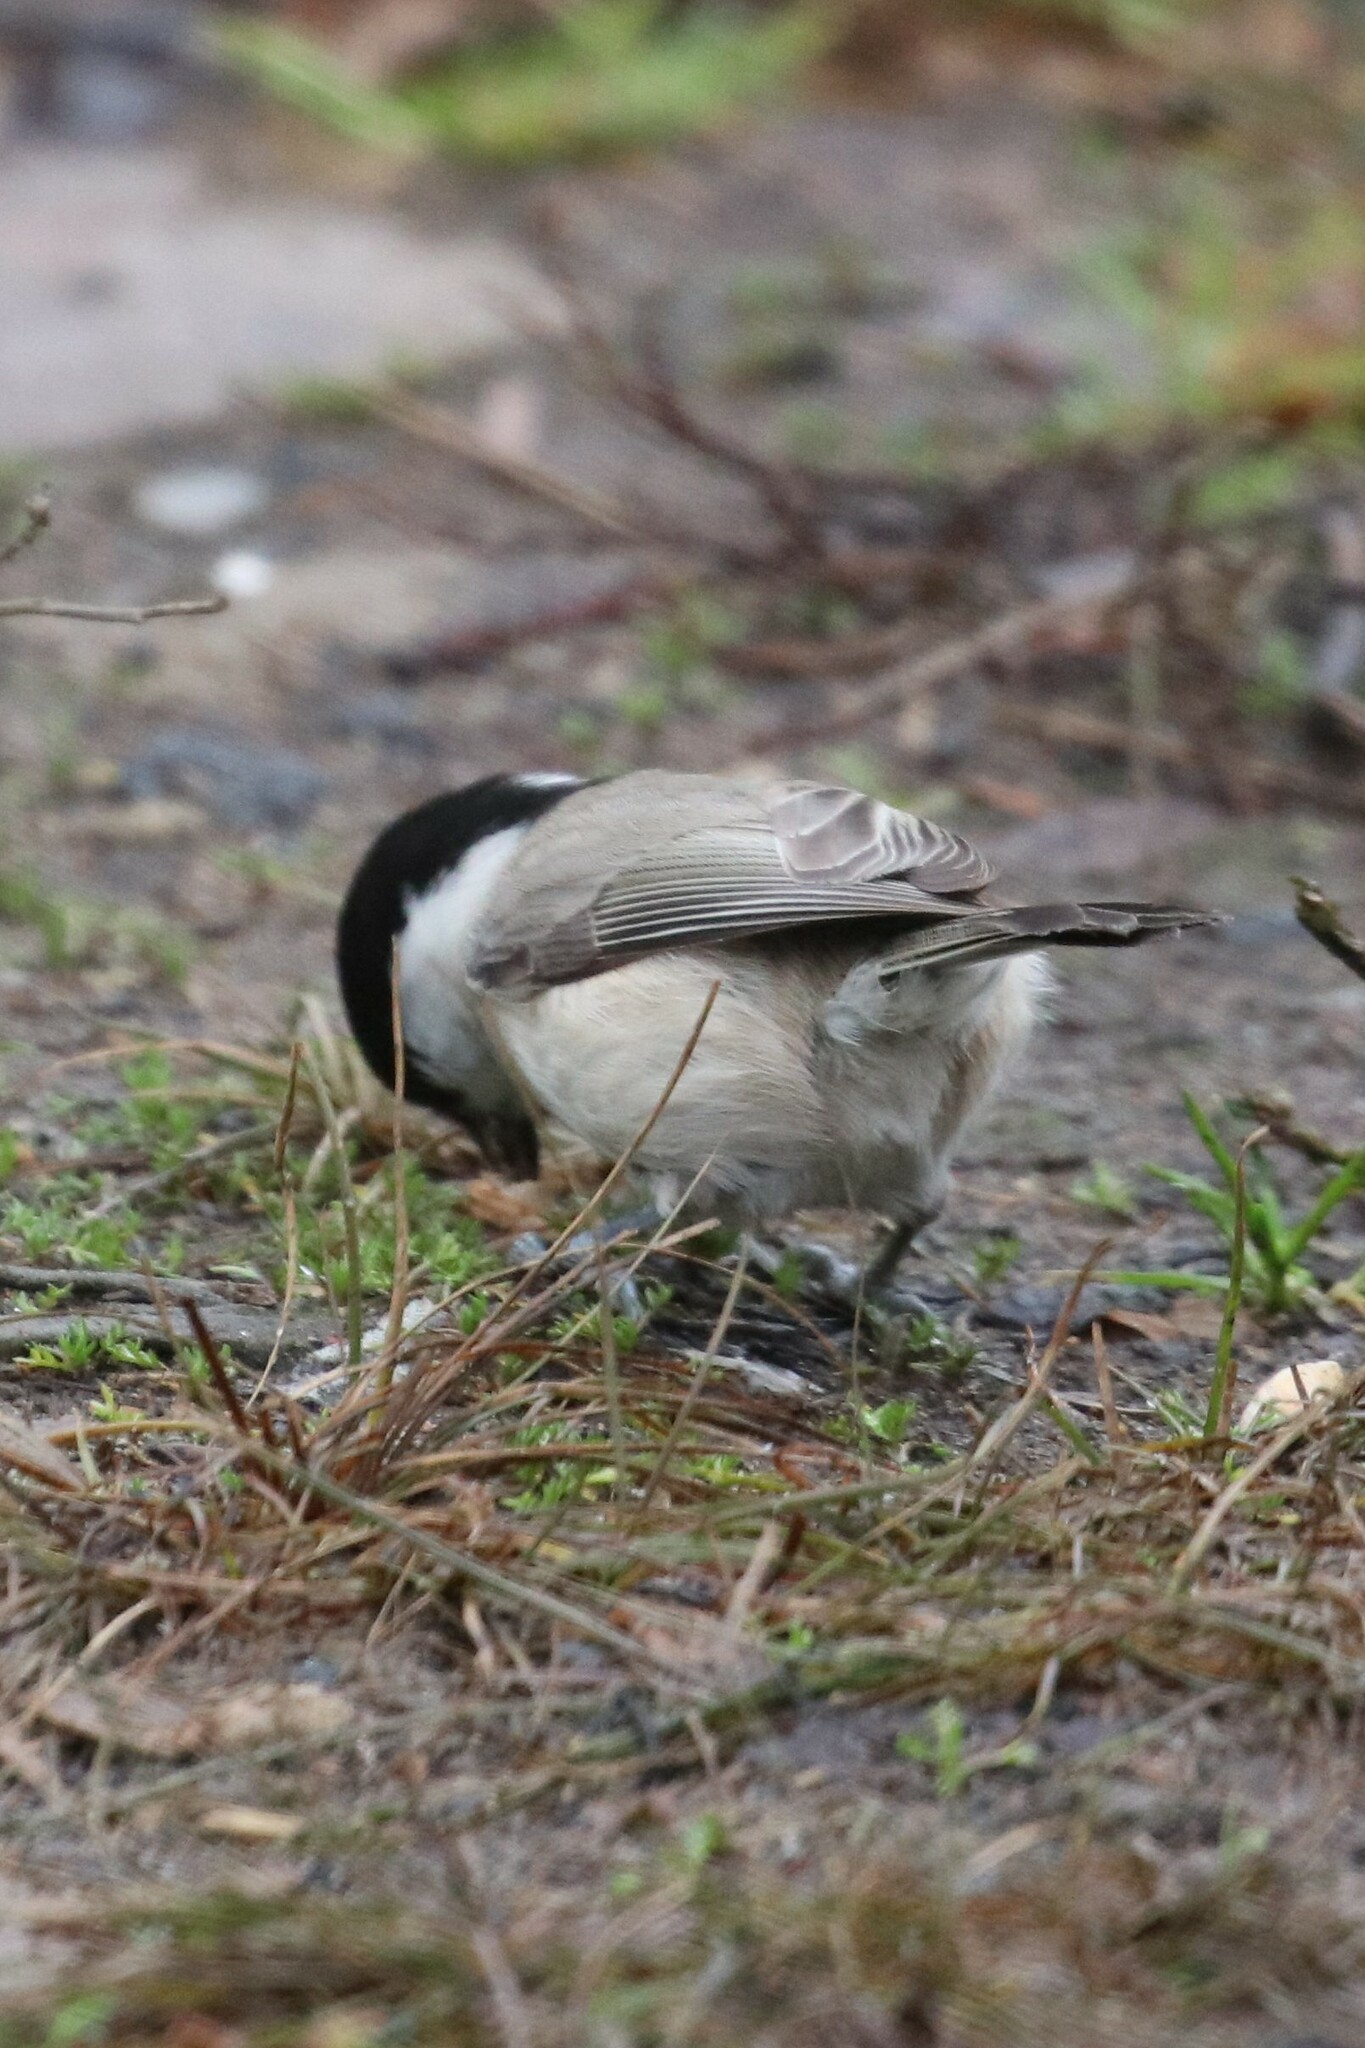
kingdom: Animalia
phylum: Chordata
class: Aves
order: Passeriformes
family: Paridae
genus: Poecile
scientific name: Poecile palustris
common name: Marsh tit
